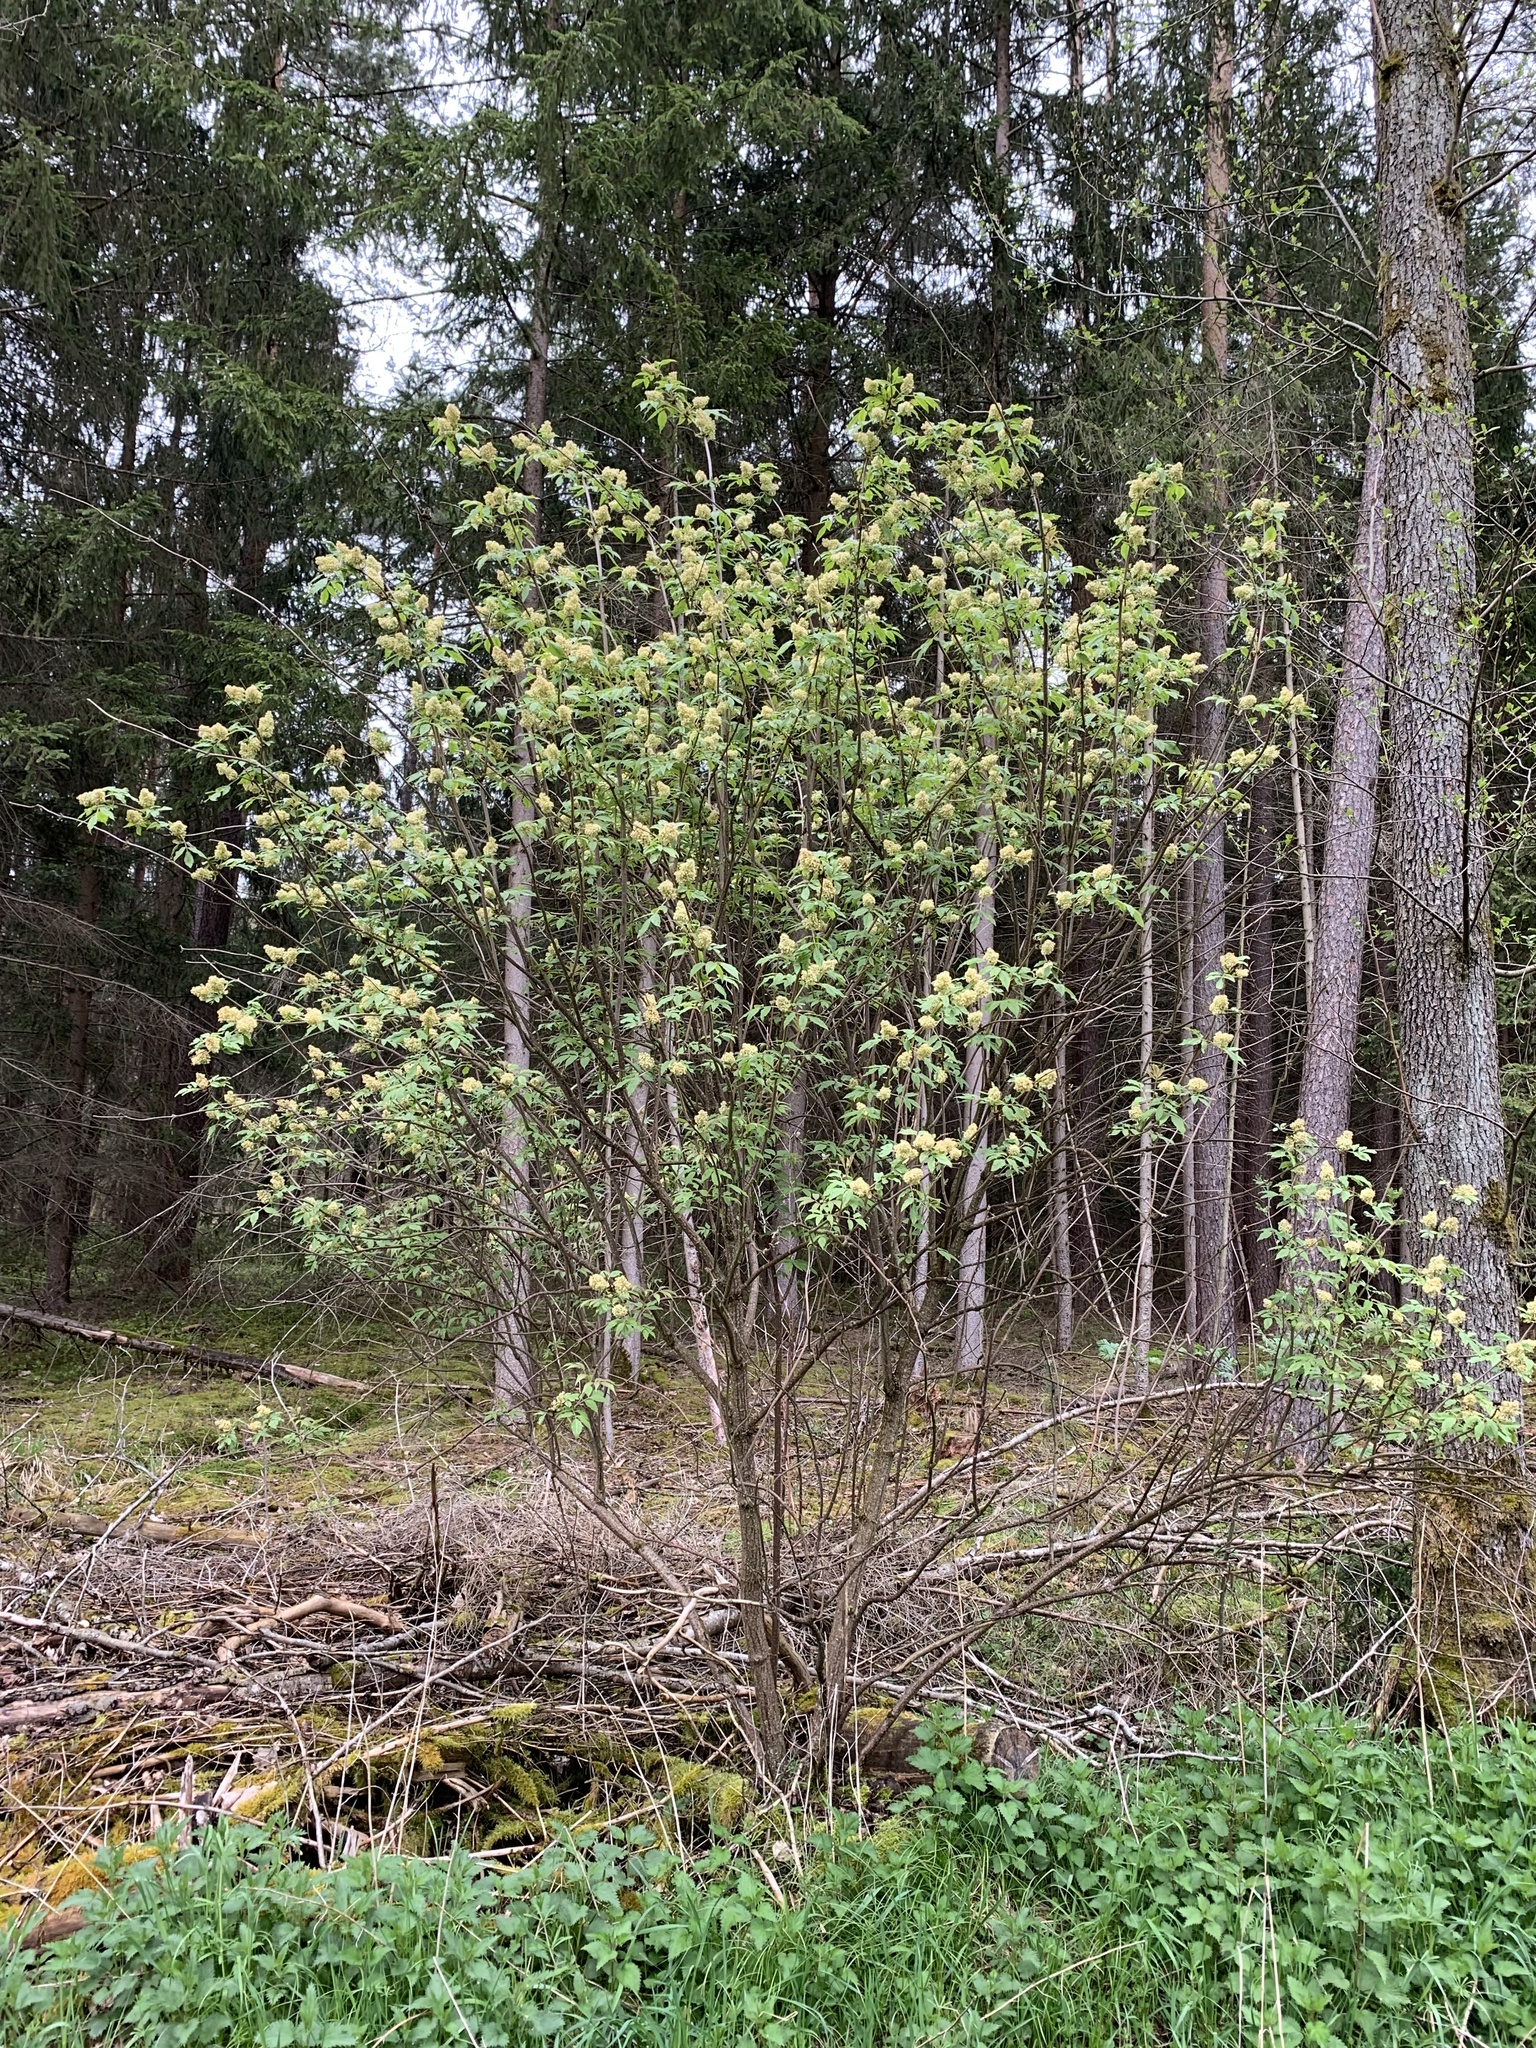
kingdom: Plantae
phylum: Tracheophyta
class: Magnoliopsida
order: Dipsacales
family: Viburnaceae
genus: Sambucus
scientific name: Sambucus racemosa
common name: Red-berried elder
